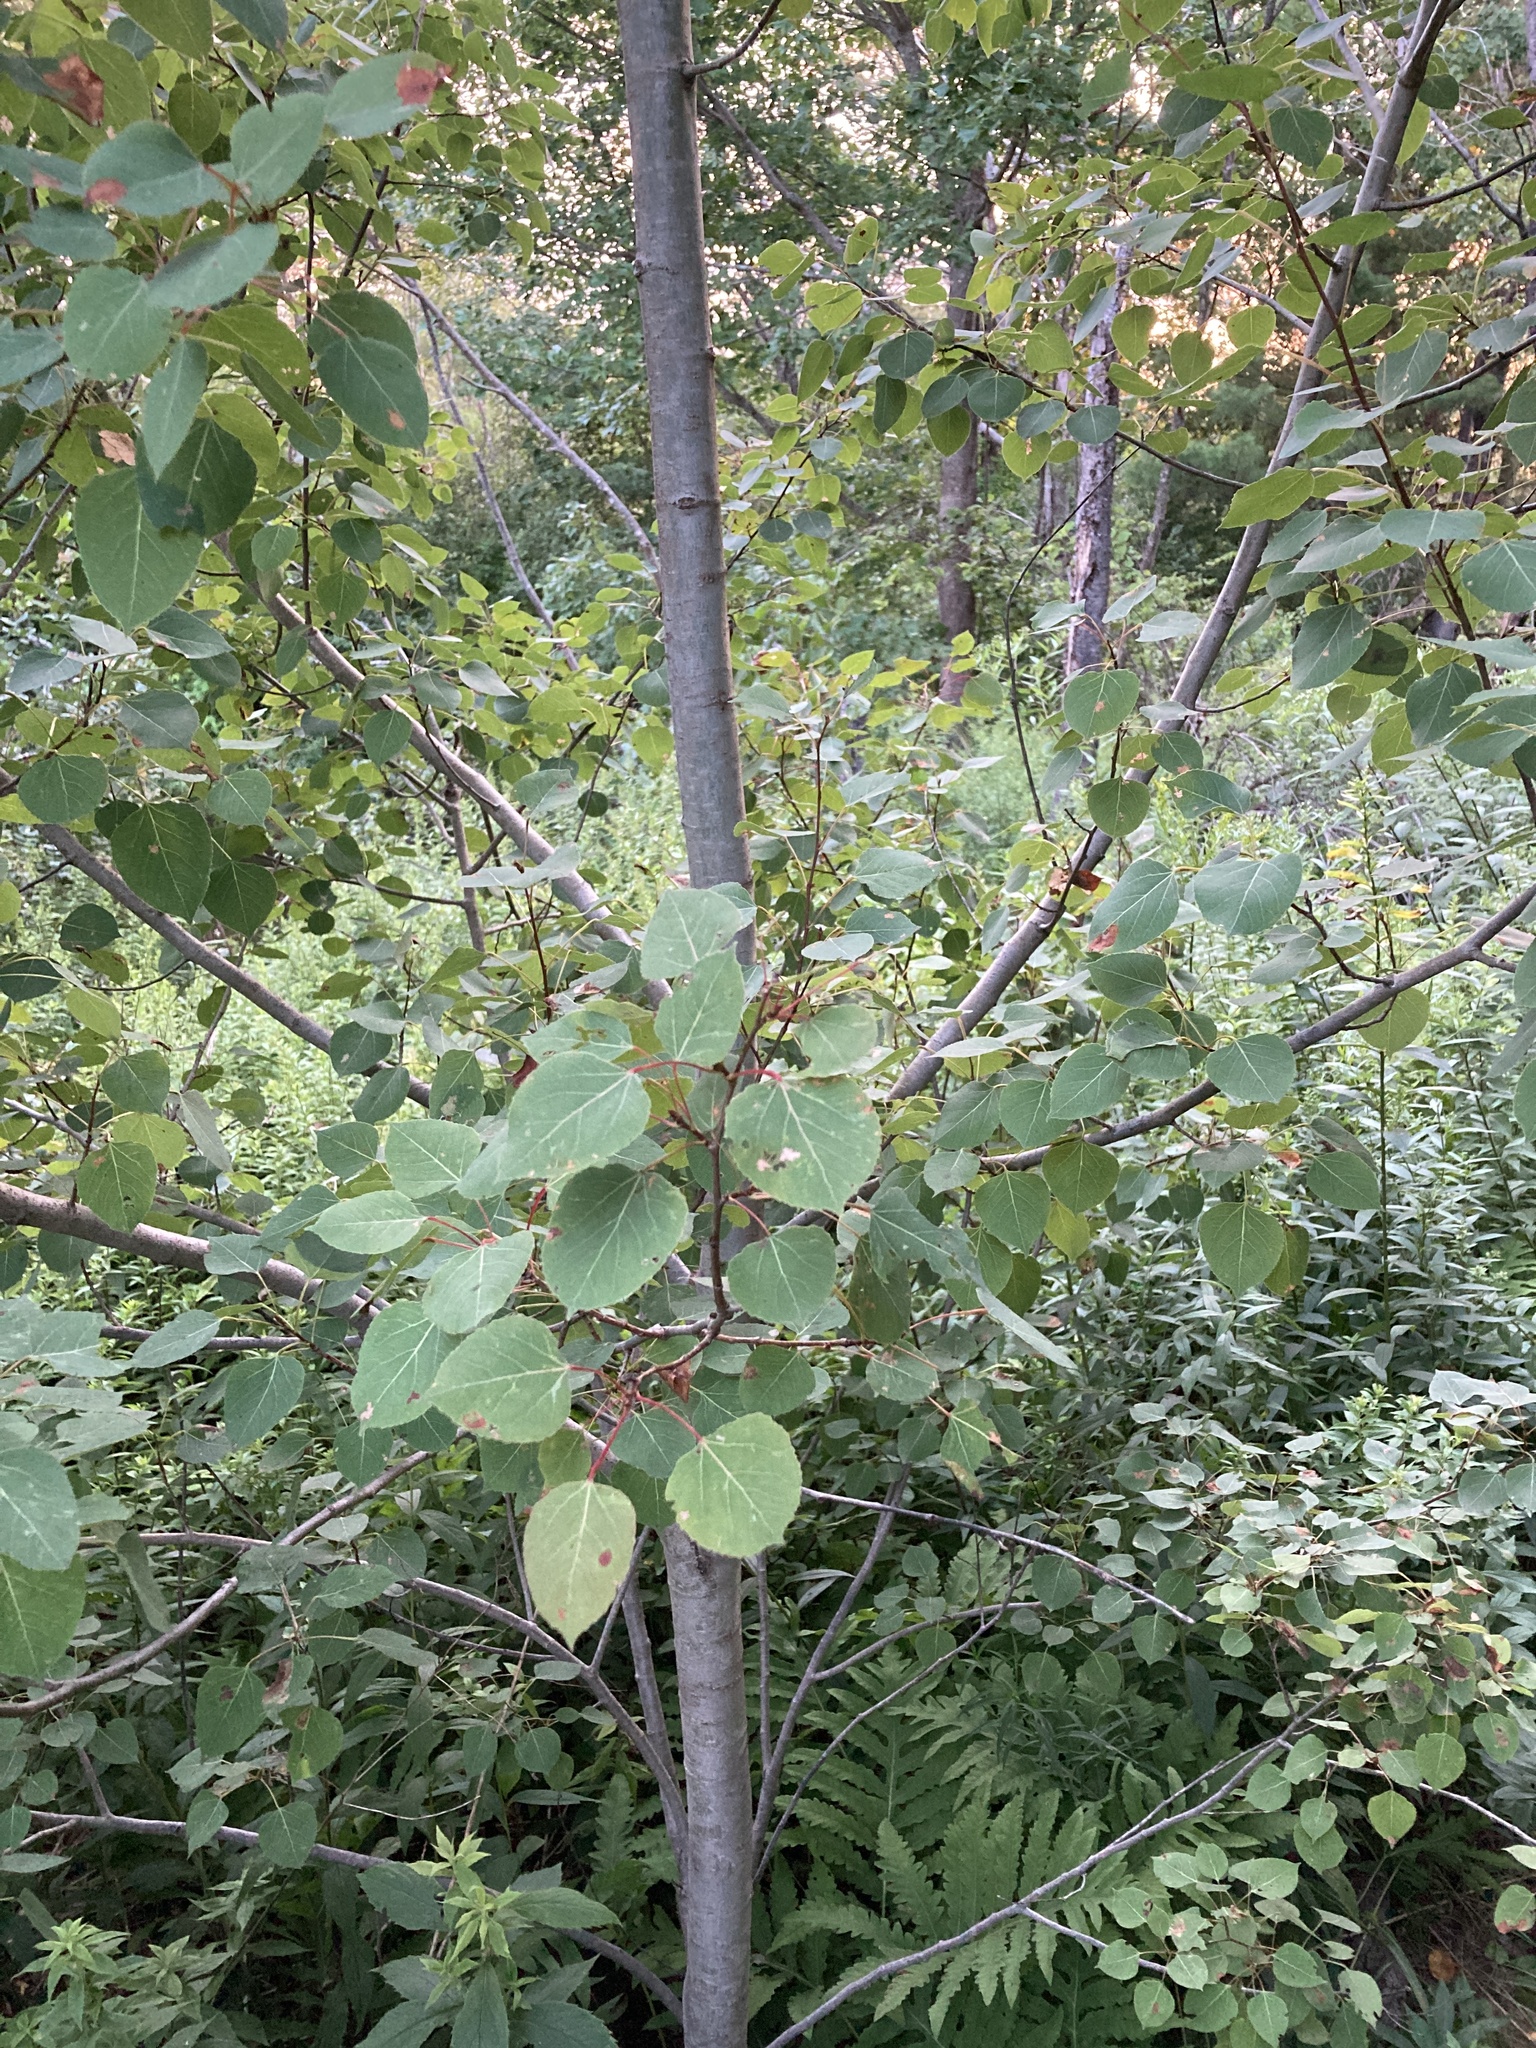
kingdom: Plantae
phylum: Tracheophyta
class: Magnoliopsida
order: Malpighiales
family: Salicaceae
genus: Populus
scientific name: Populus tremuloides
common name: Quaking aspen
